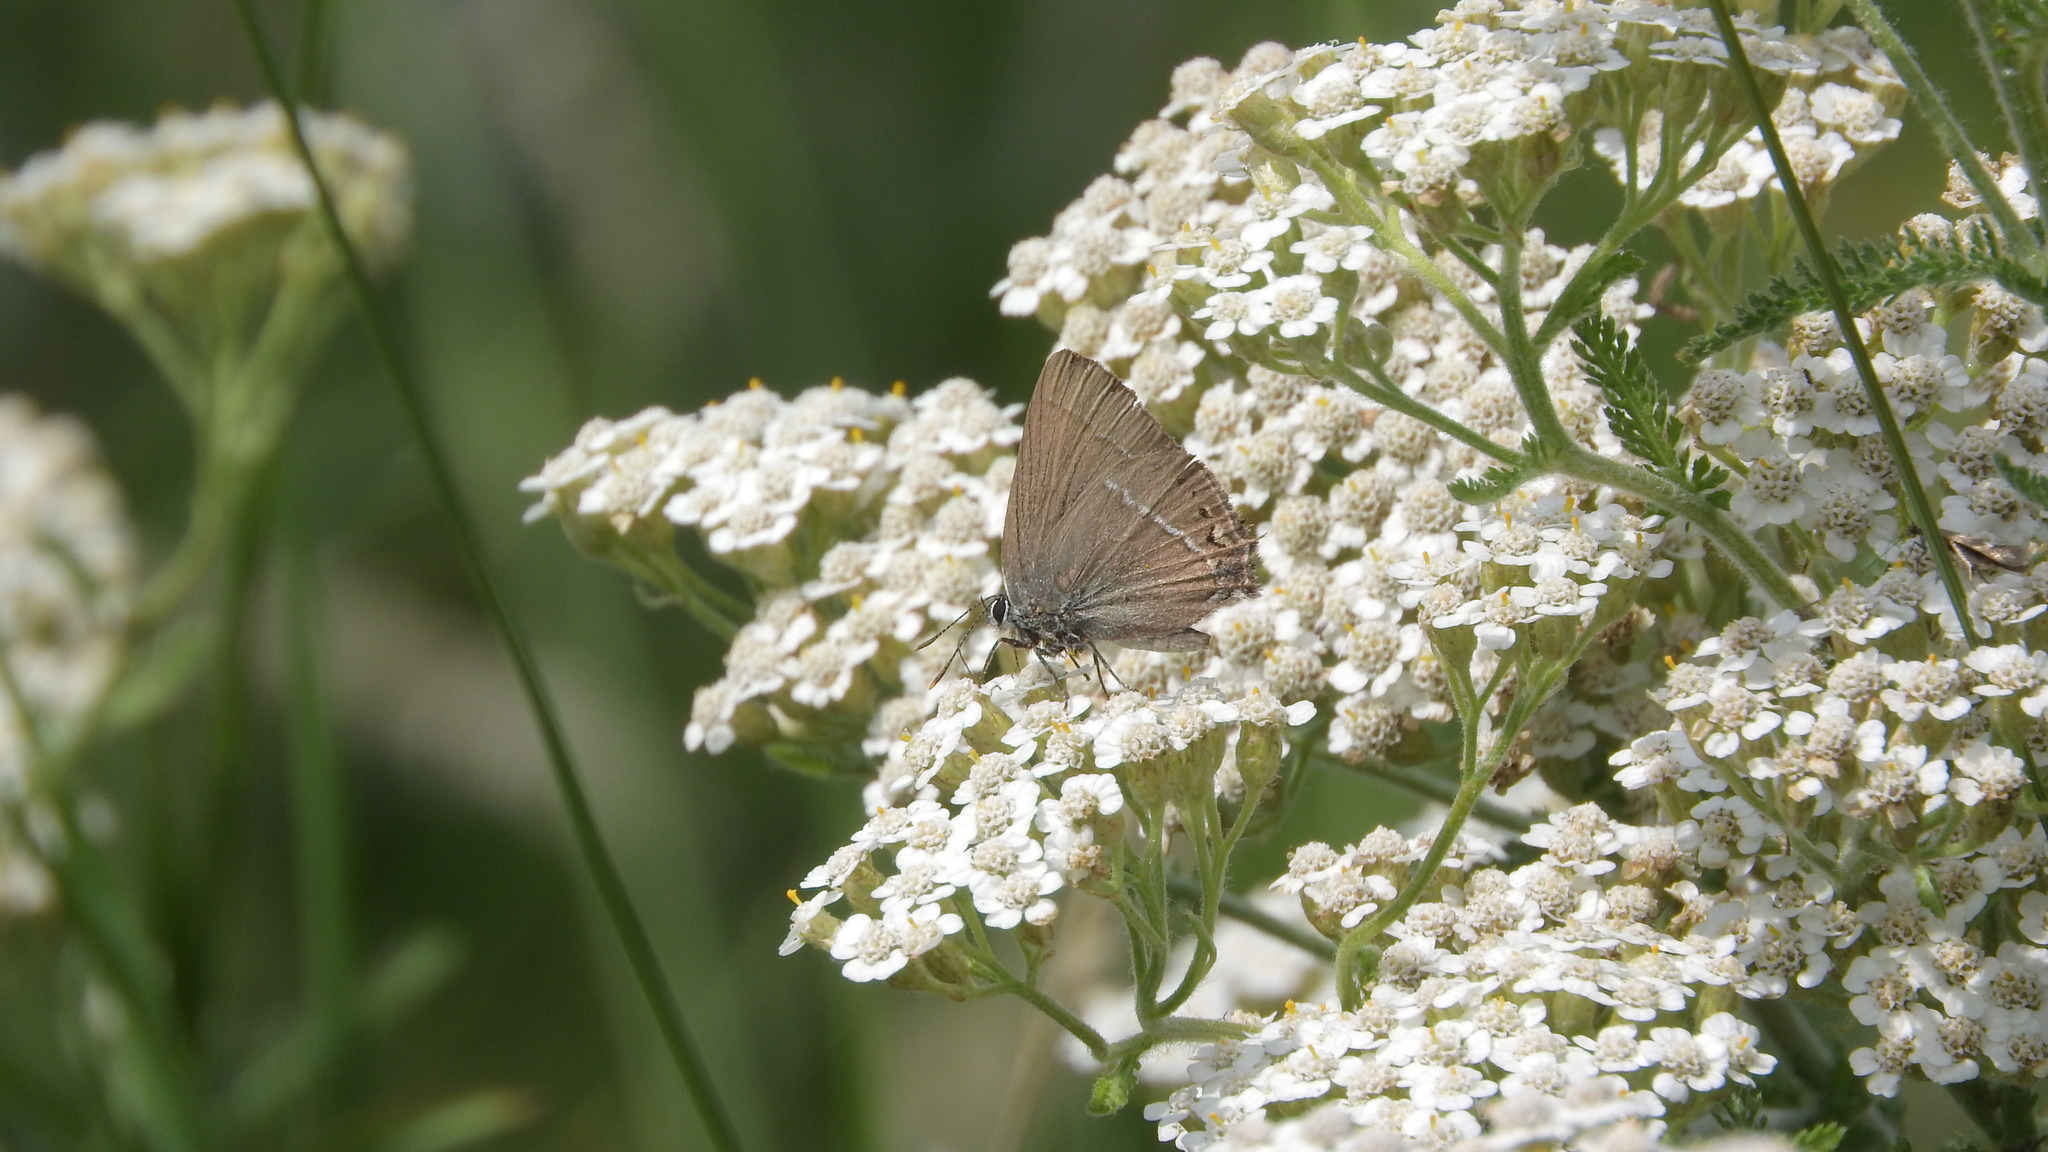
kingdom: Animalia
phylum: Arthropoda
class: Insecta
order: Lepidoptera
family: Lycaenidae
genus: Tuttiola
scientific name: Tuttiola spini
